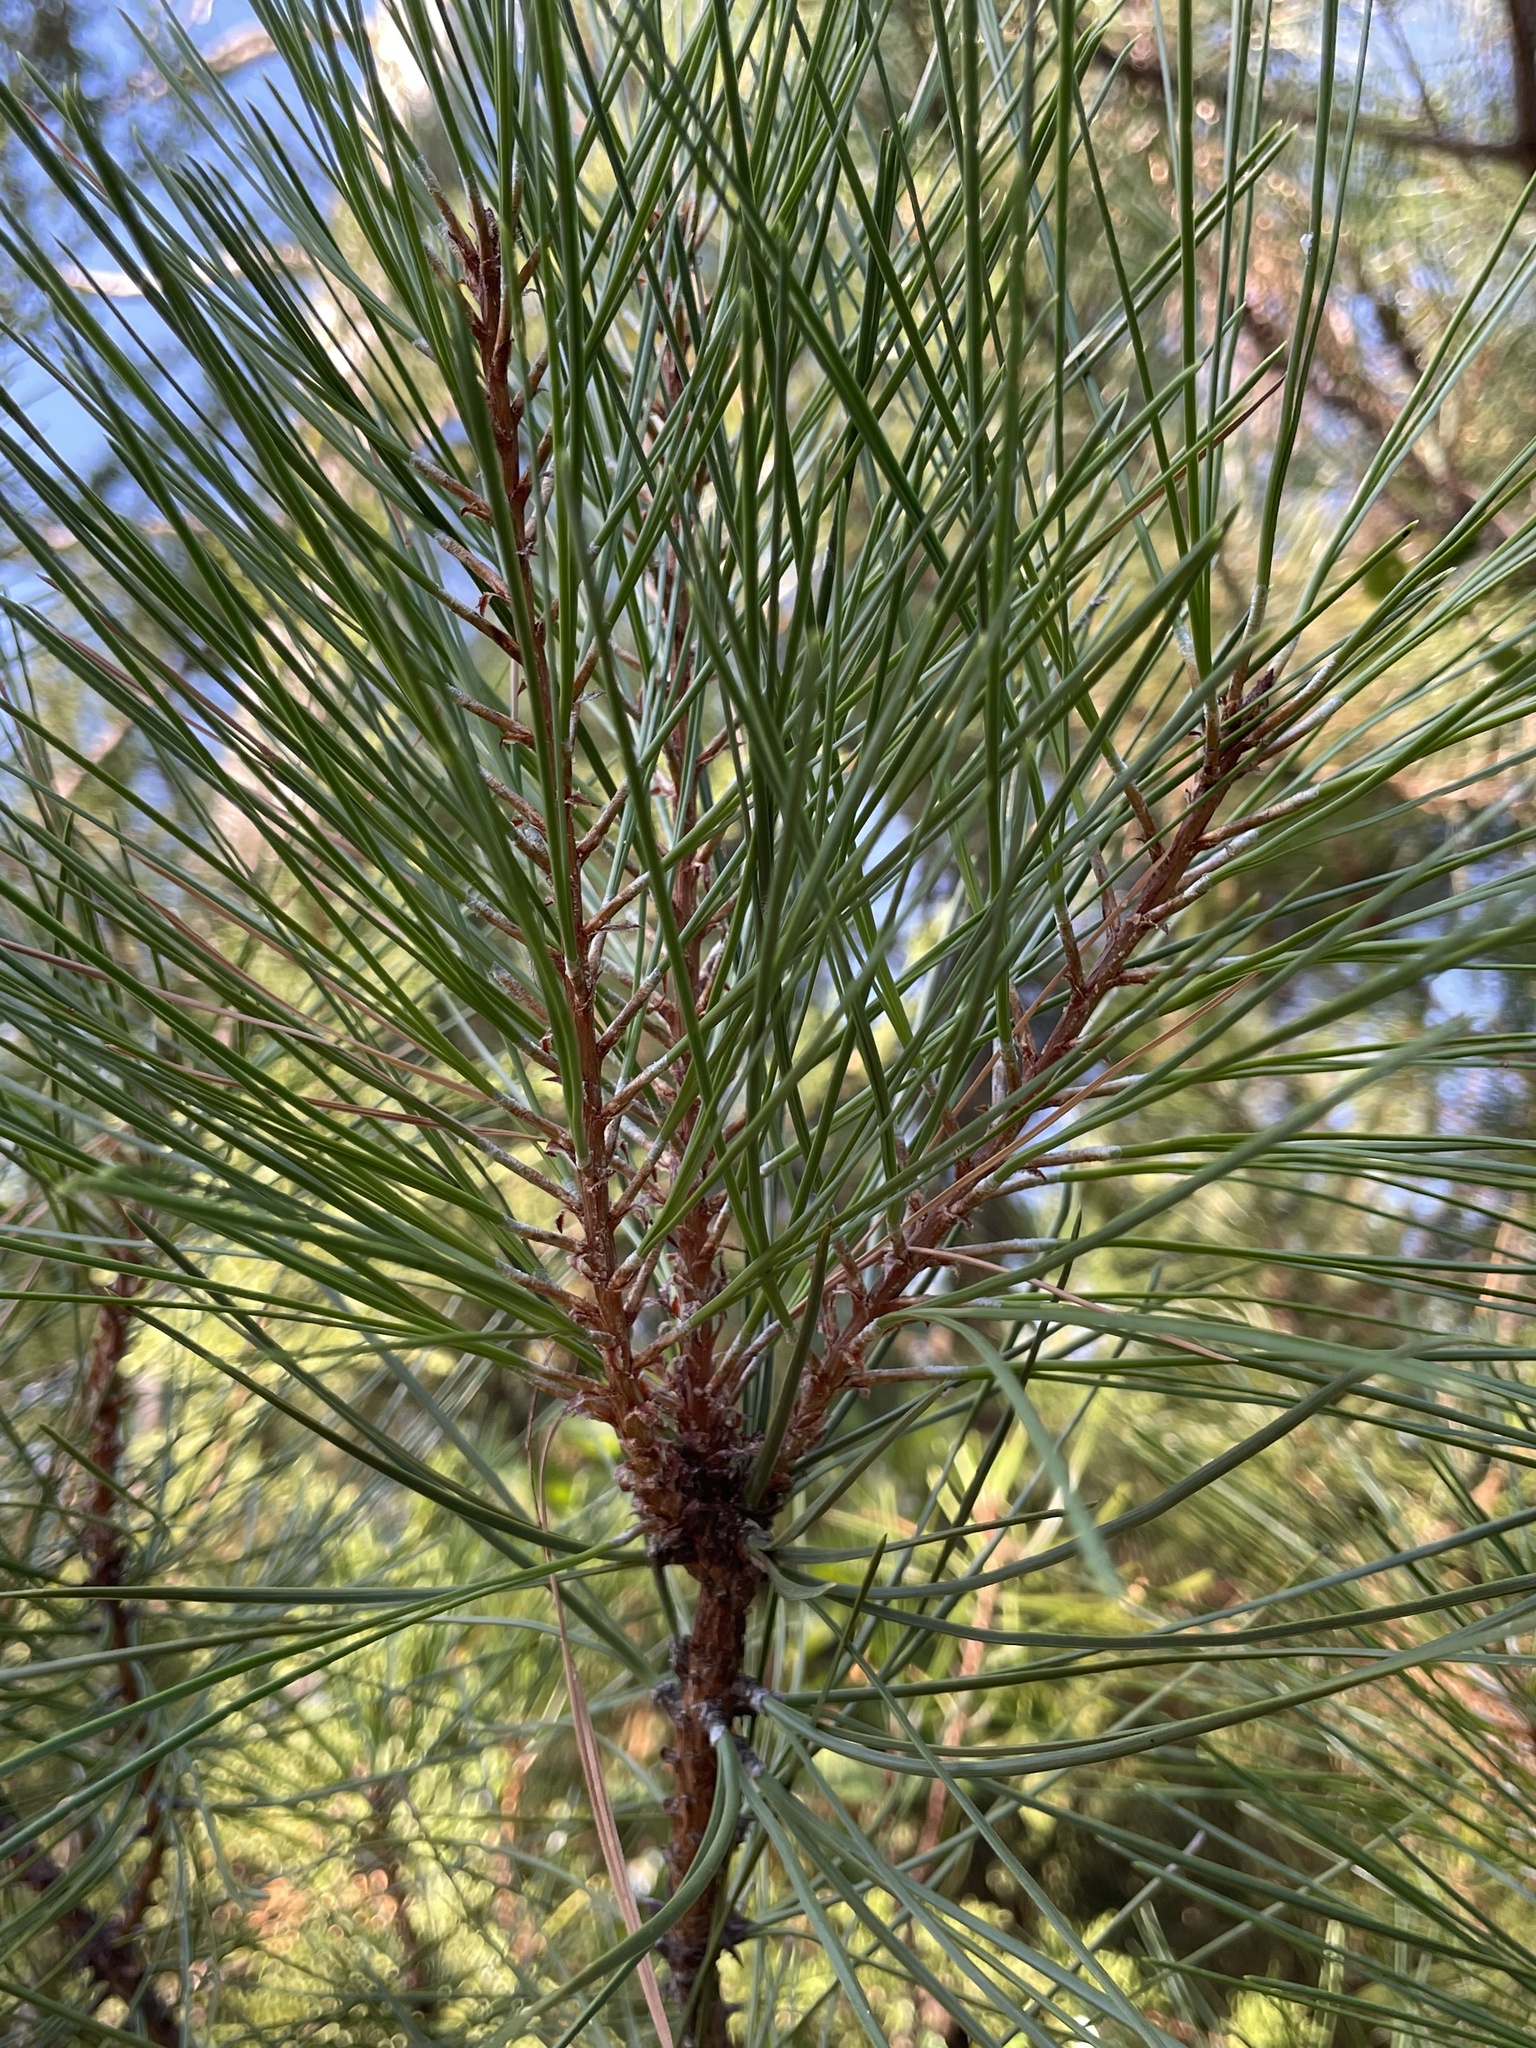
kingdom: Plantae
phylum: Tracheophyta
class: Pinopsida
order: Pinales
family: Pinaceae
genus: Pinus
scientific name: Pinus attenuata
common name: Knobcone pine
